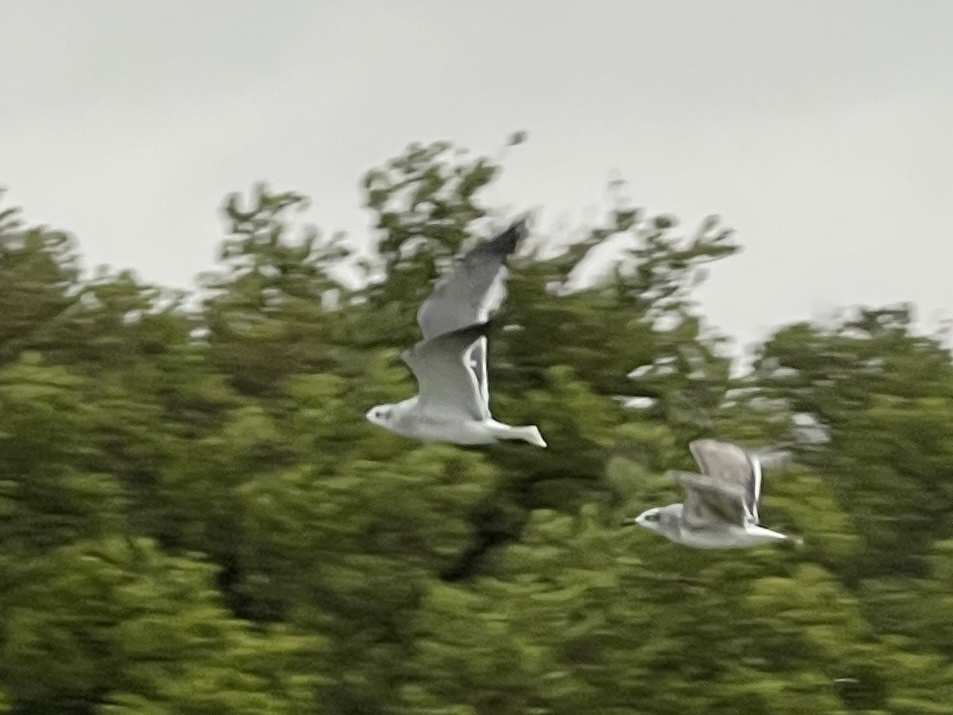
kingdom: Animalia
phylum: Chordata
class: Aves
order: Charadriiformes
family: Laridae
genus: Leucophaeus
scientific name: Leucophaeus atricilla
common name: Laughing gull
